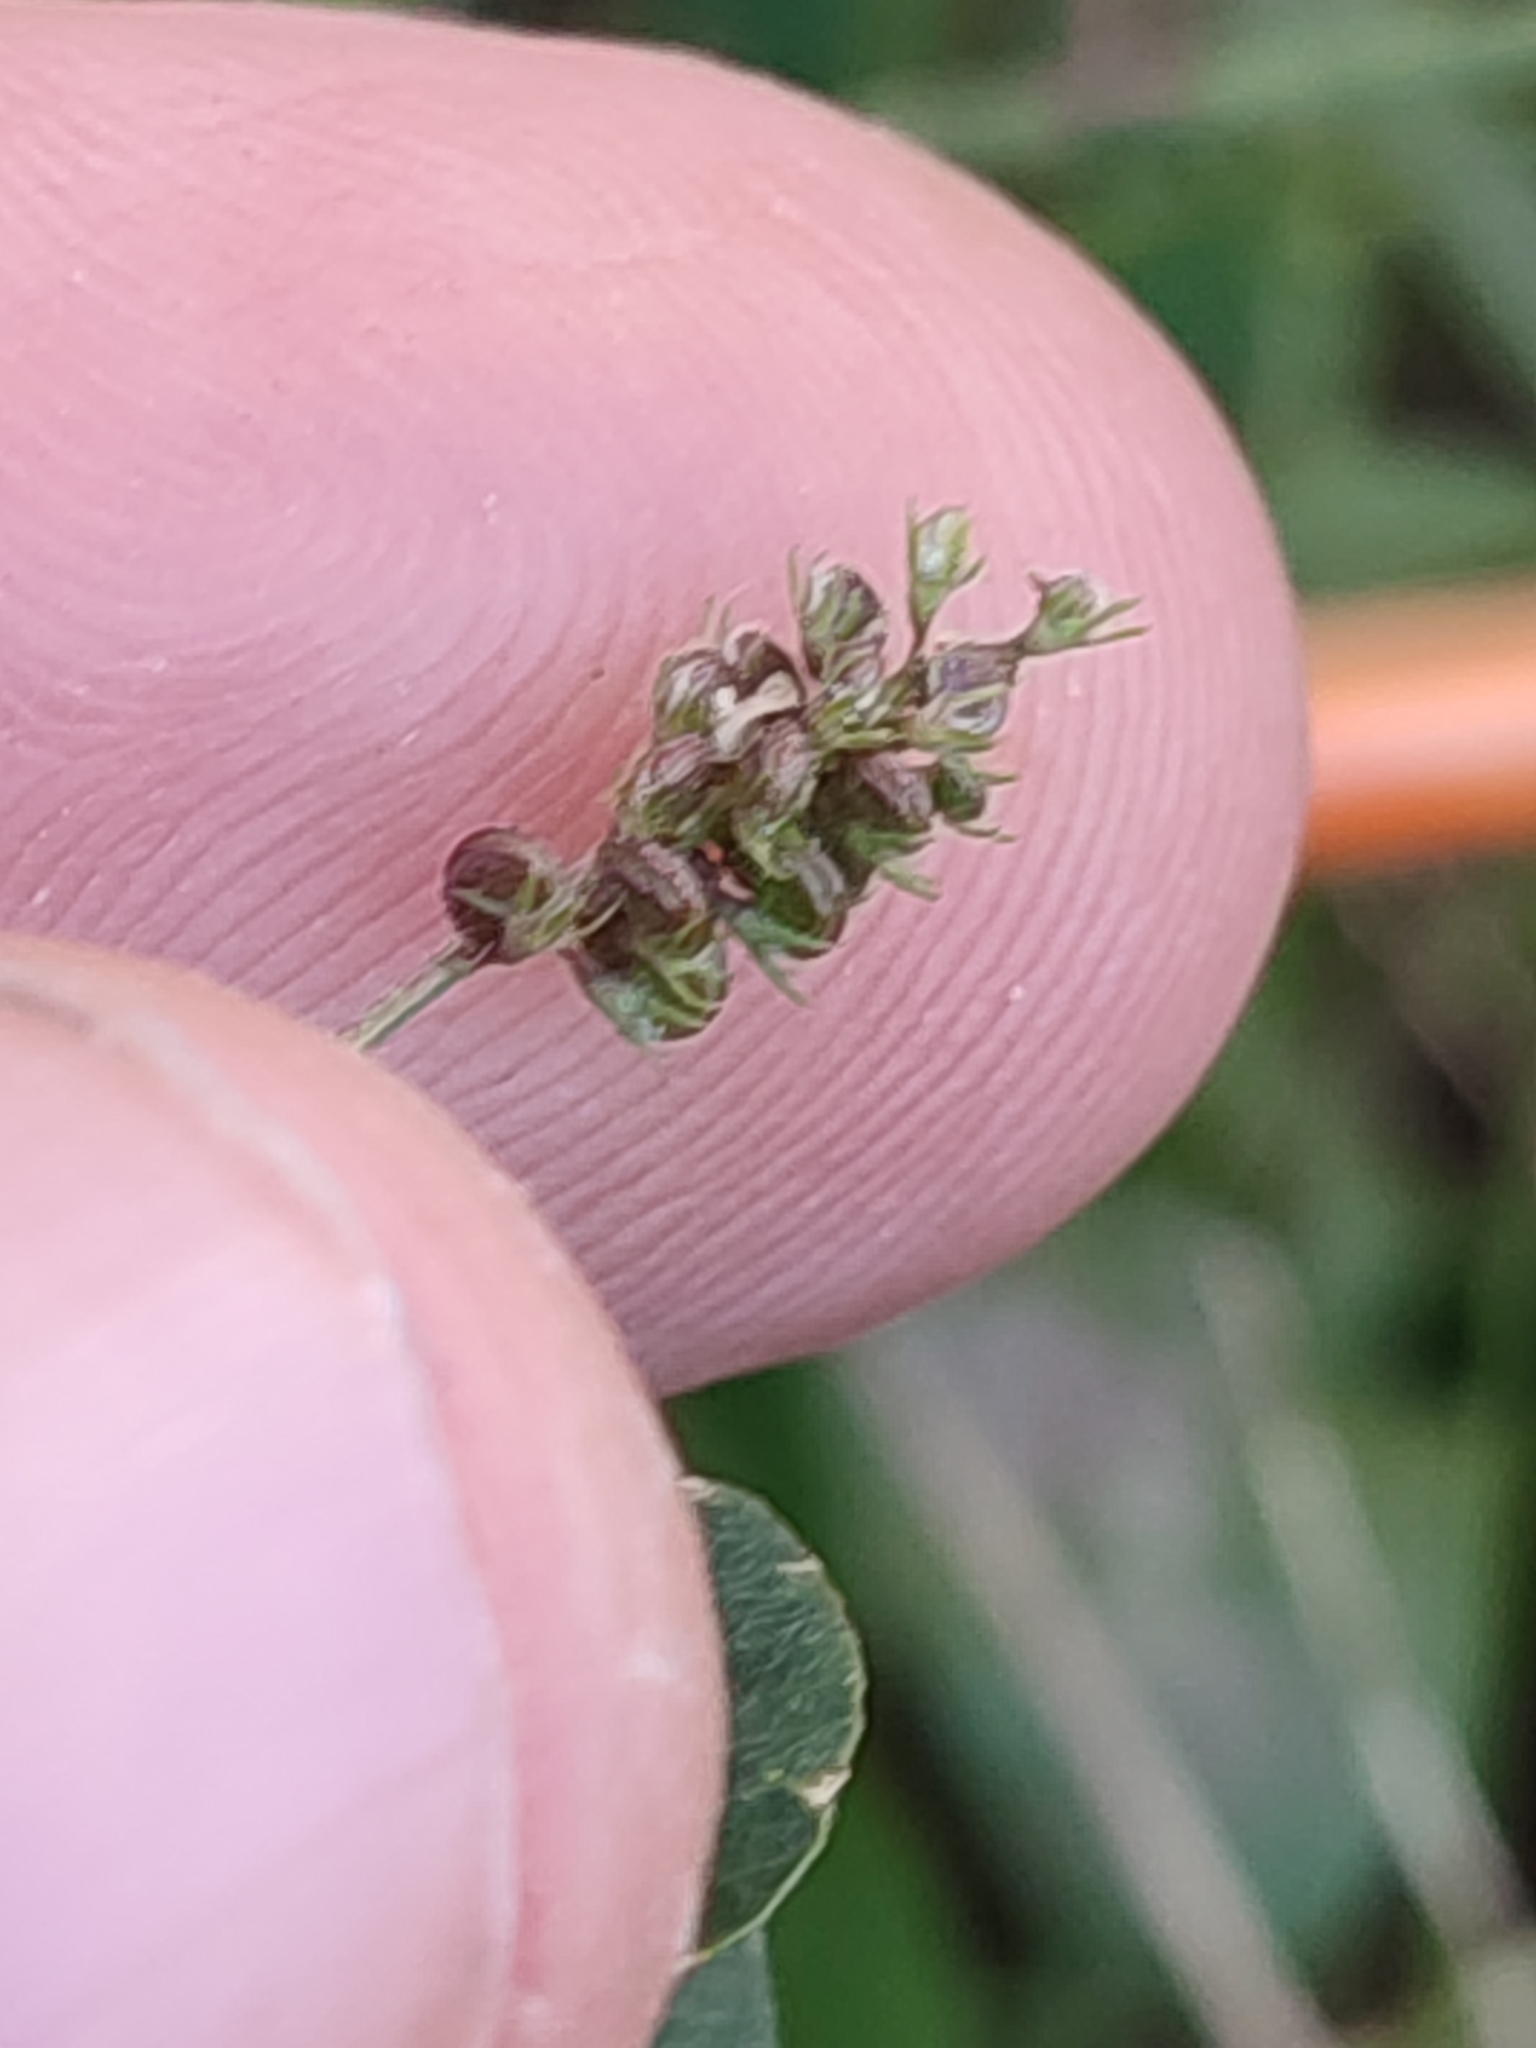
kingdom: Plantae
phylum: Tracheophyta
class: Magnoliopsida
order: Fabales
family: Fabaceae
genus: Medicago
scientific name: Medicago lupulina
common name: Black medick
